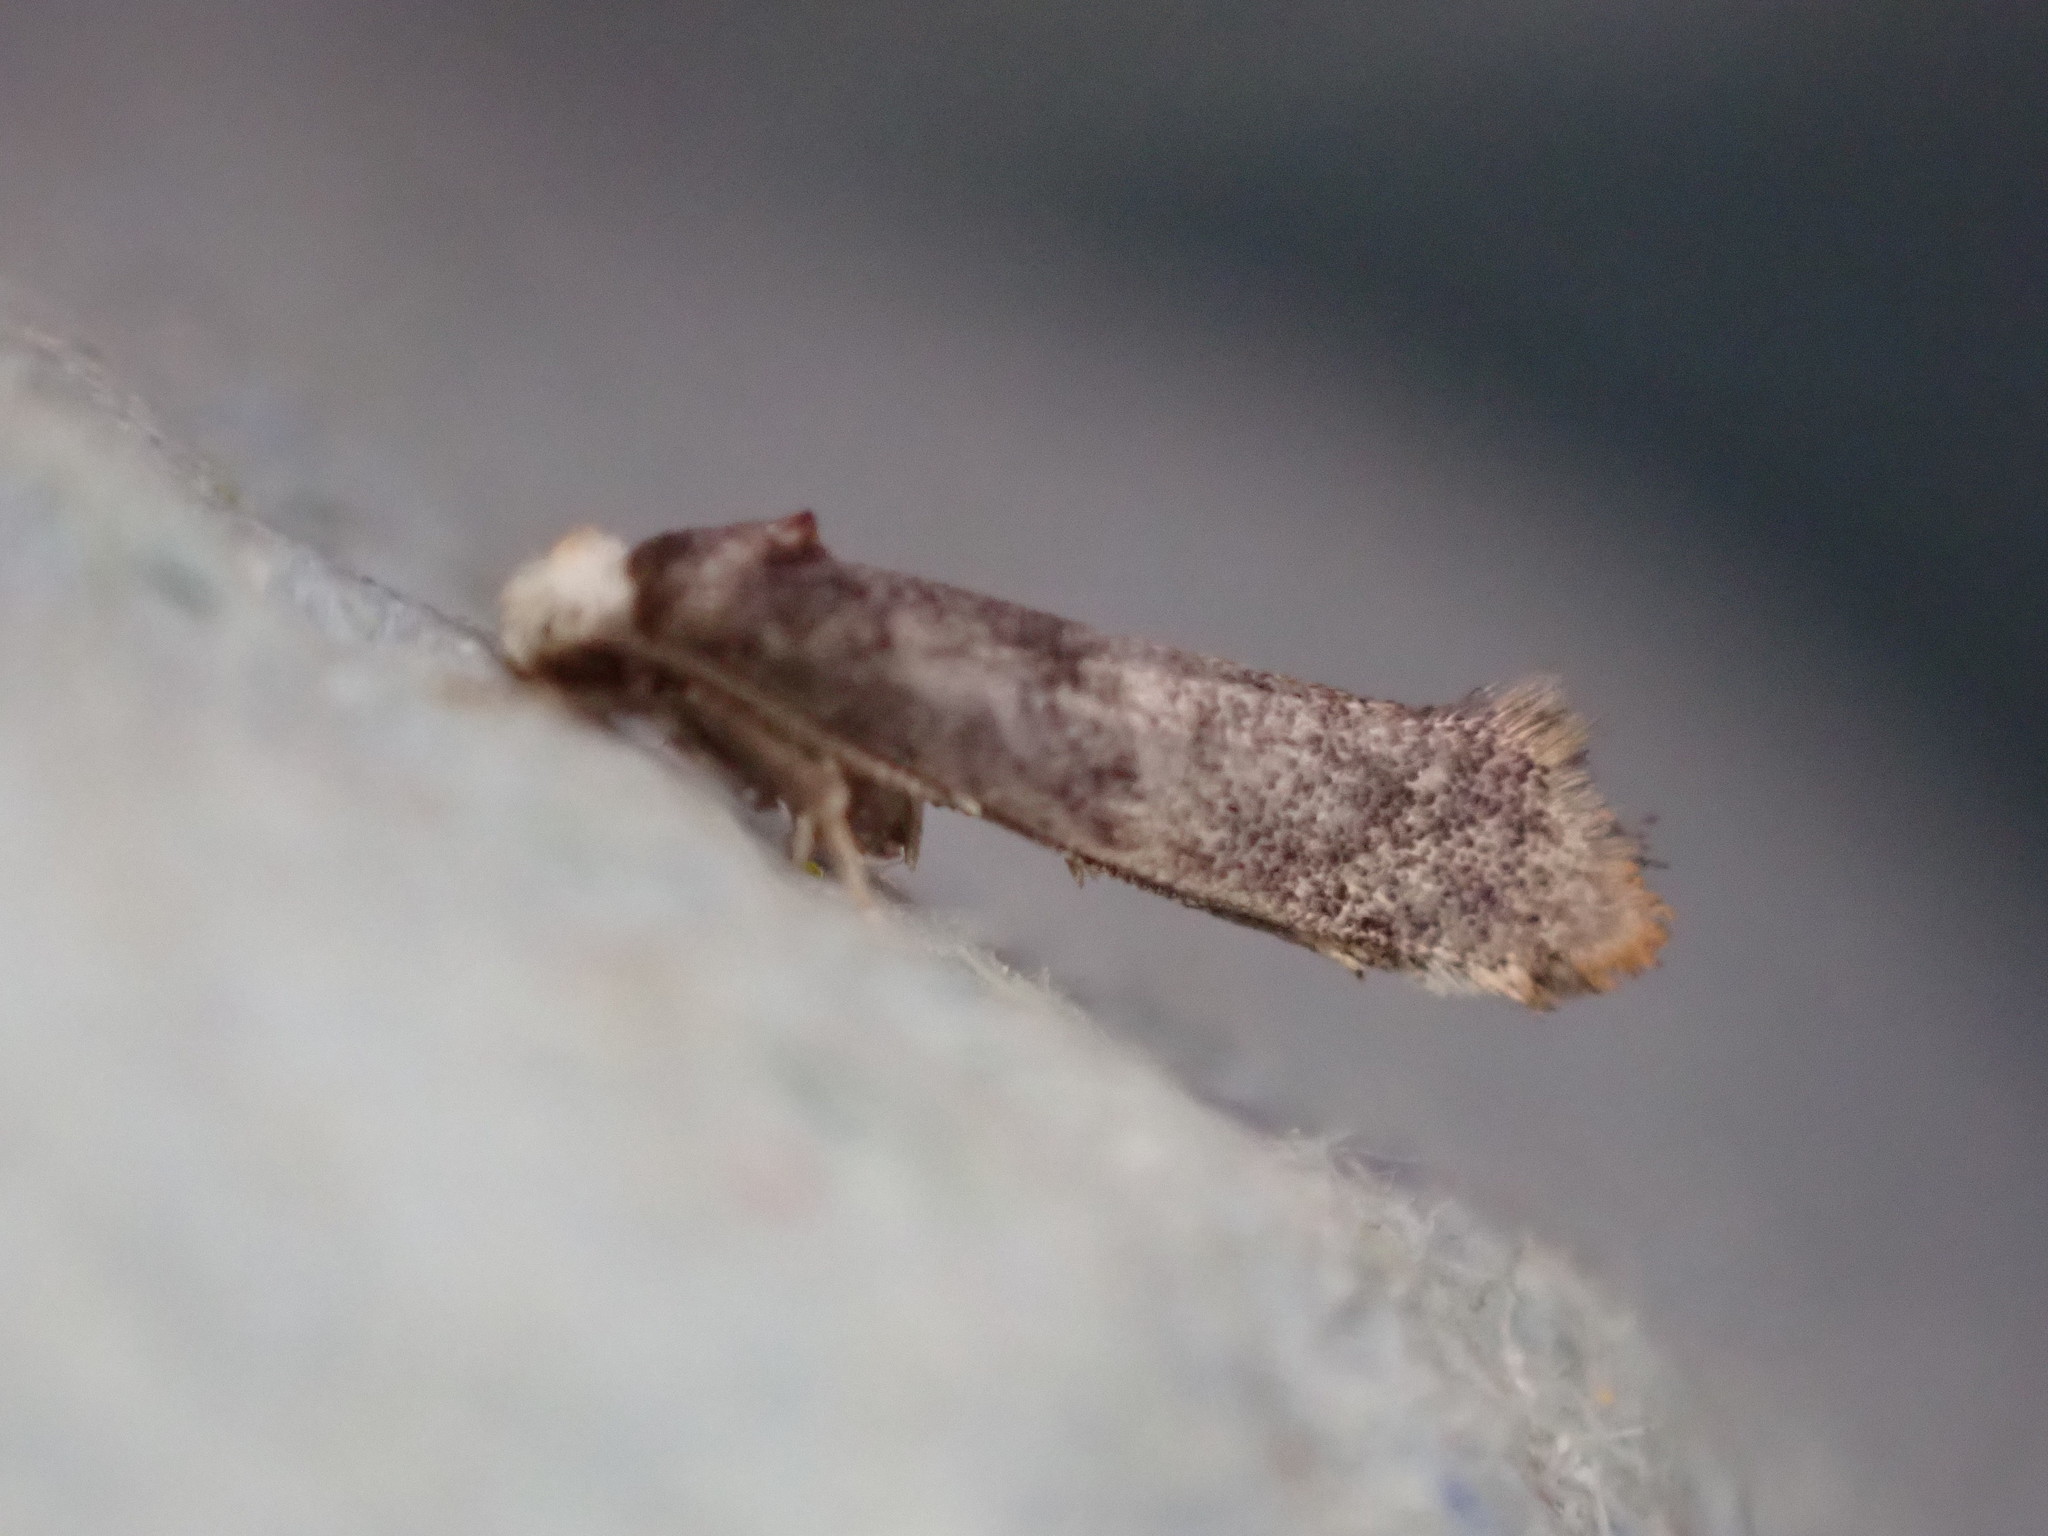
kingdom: Animalia
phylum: Arthropoda
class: Insecta
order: Lepidoptera
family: Yponomeutidae
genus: Swammerdamia
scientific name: Swammerdamia
